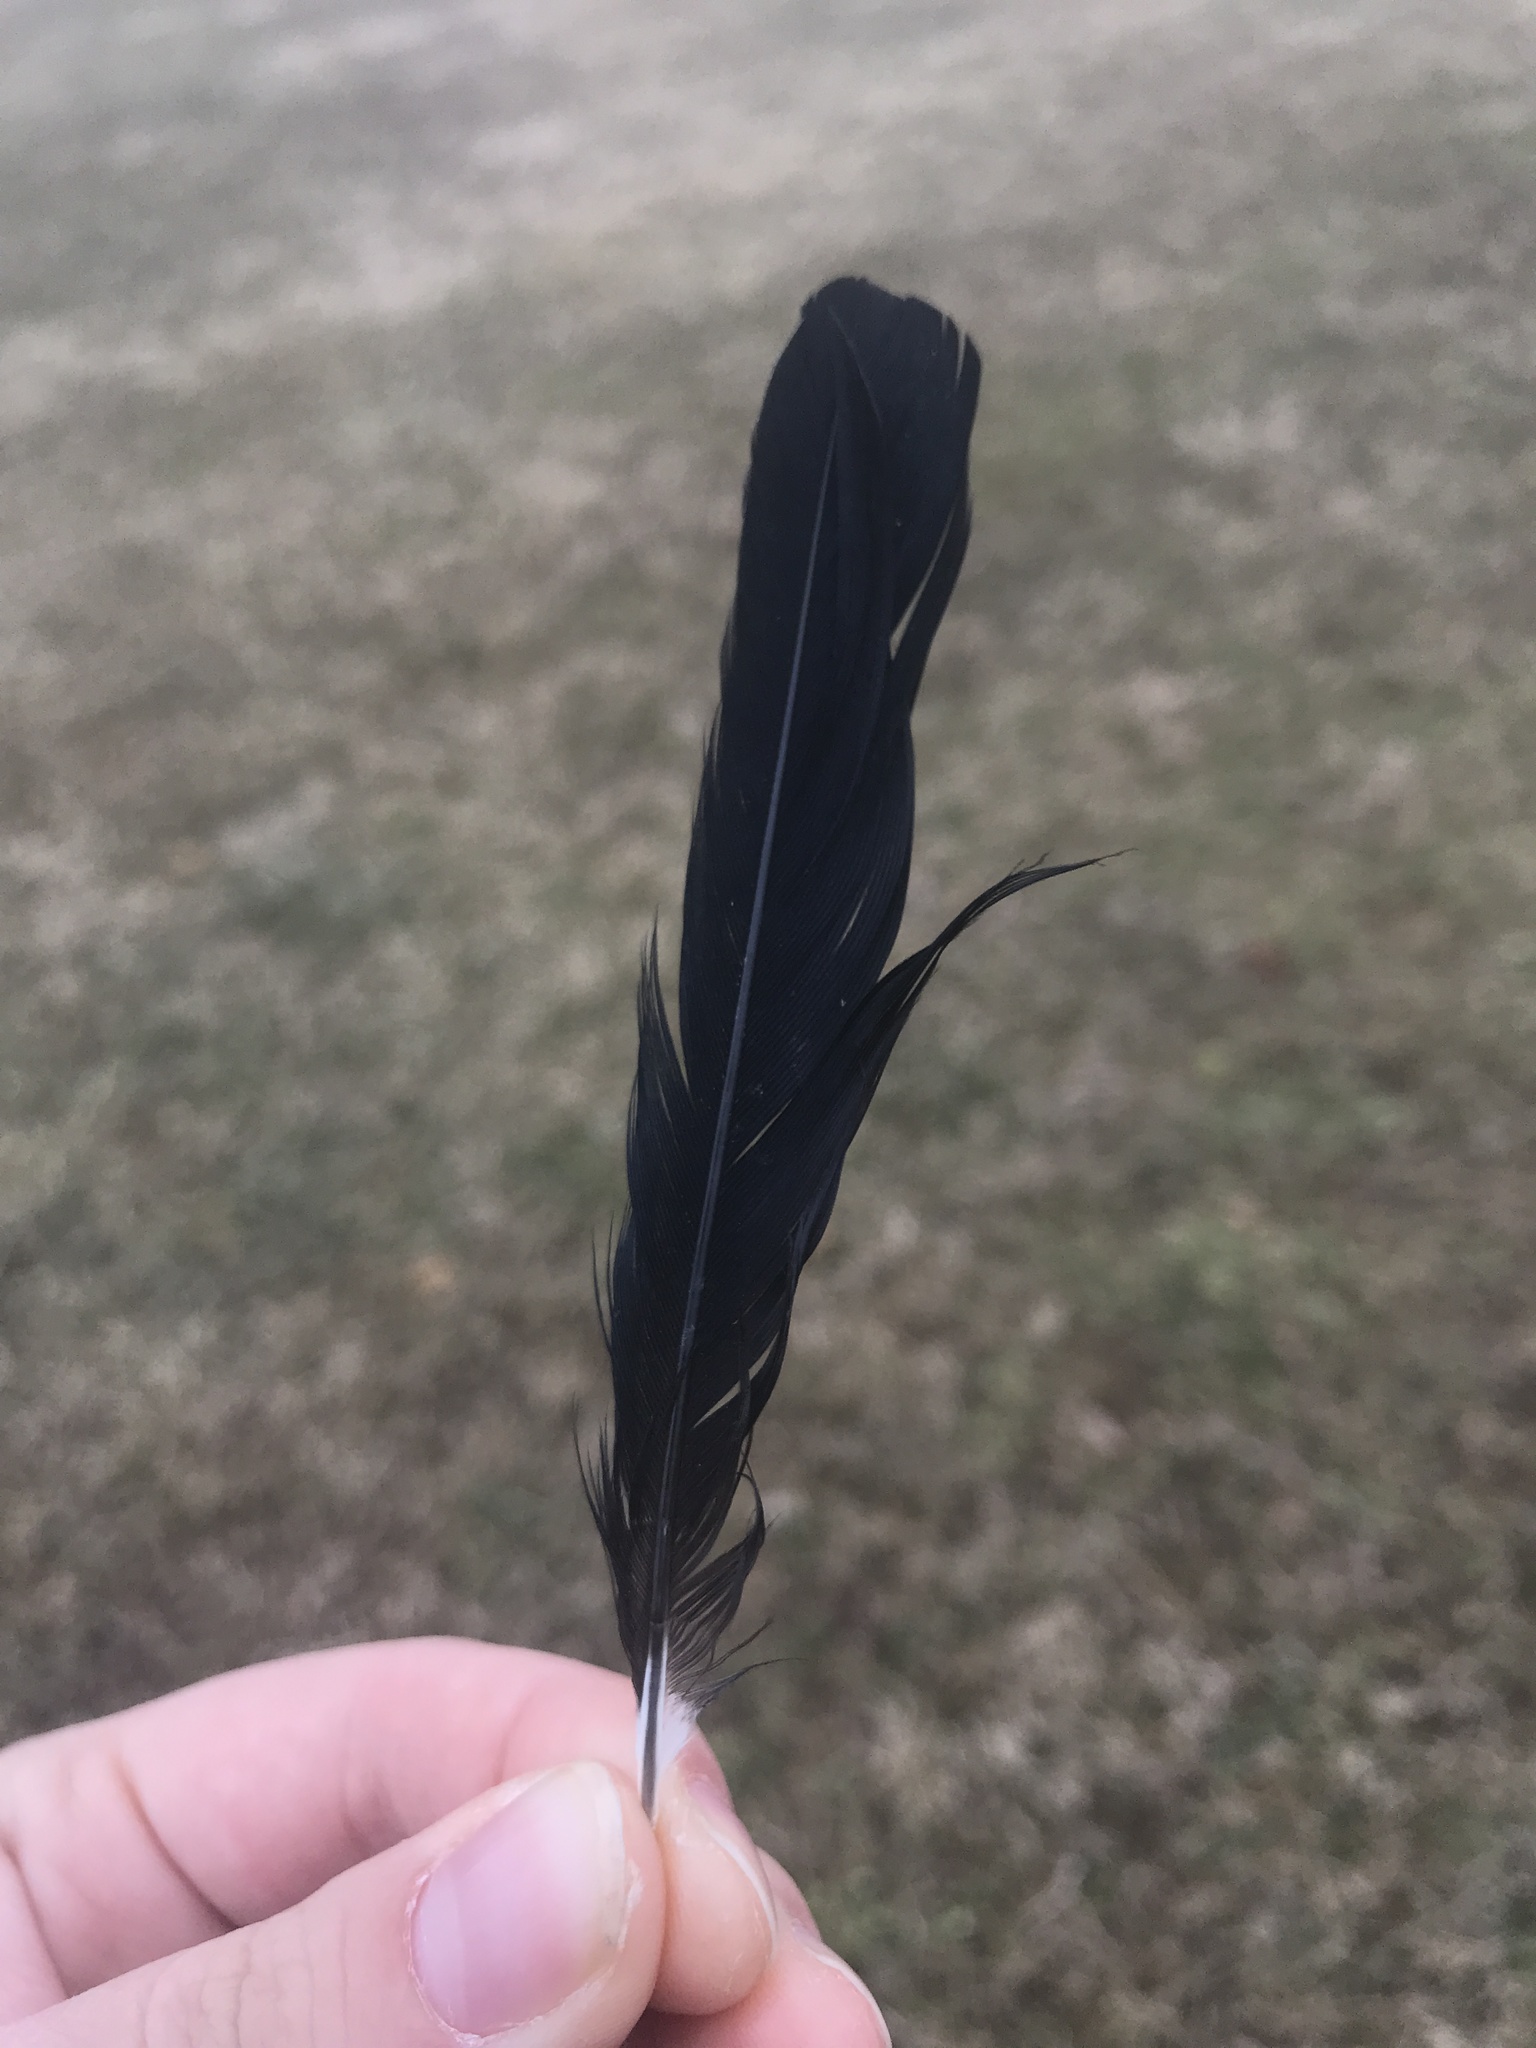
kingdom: Animalia
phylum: Chordata
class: Aves
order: Passeriformes
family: Icteridae
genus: Agelaius
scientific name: Agelaius phoeniceus
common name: Red-winged blackbird
